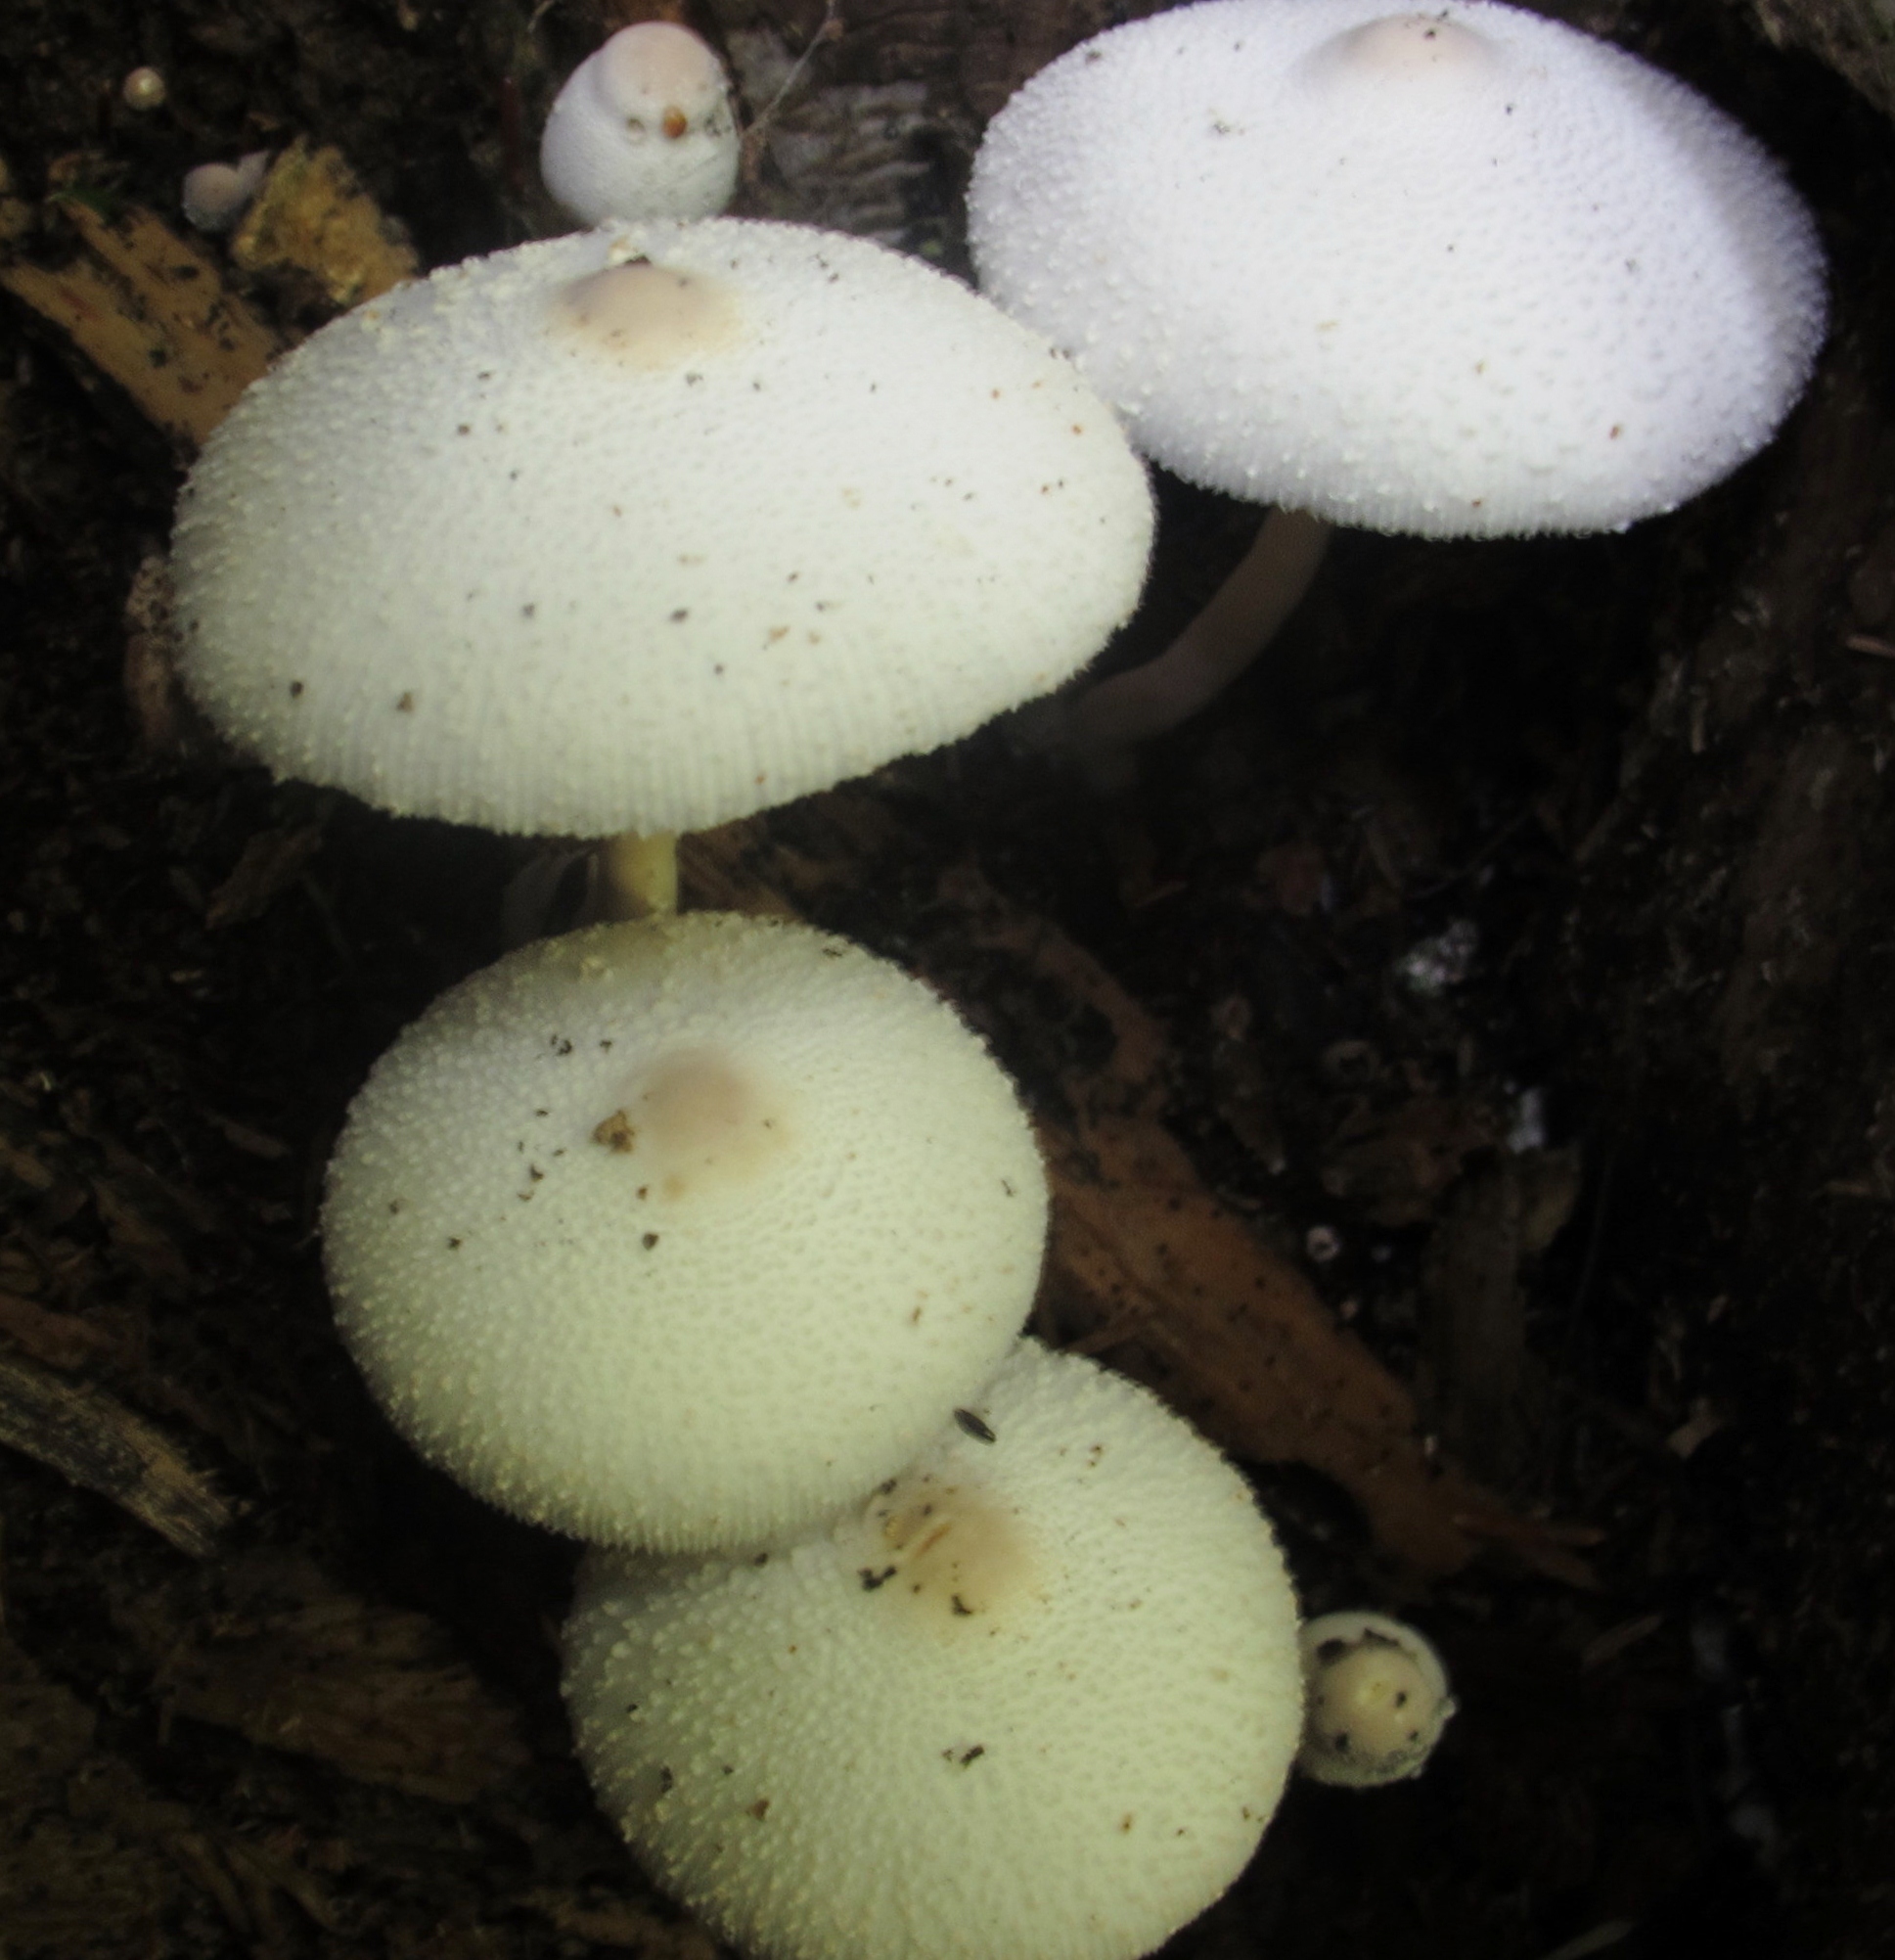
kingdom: Fungi
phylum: Basidiomycota
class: Agaricomycetes
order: Agaricales
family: Agaricaceae
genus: Leucocoprinus
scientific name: Leucocoprinus cepistipes
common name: Onion-stalk parasol
